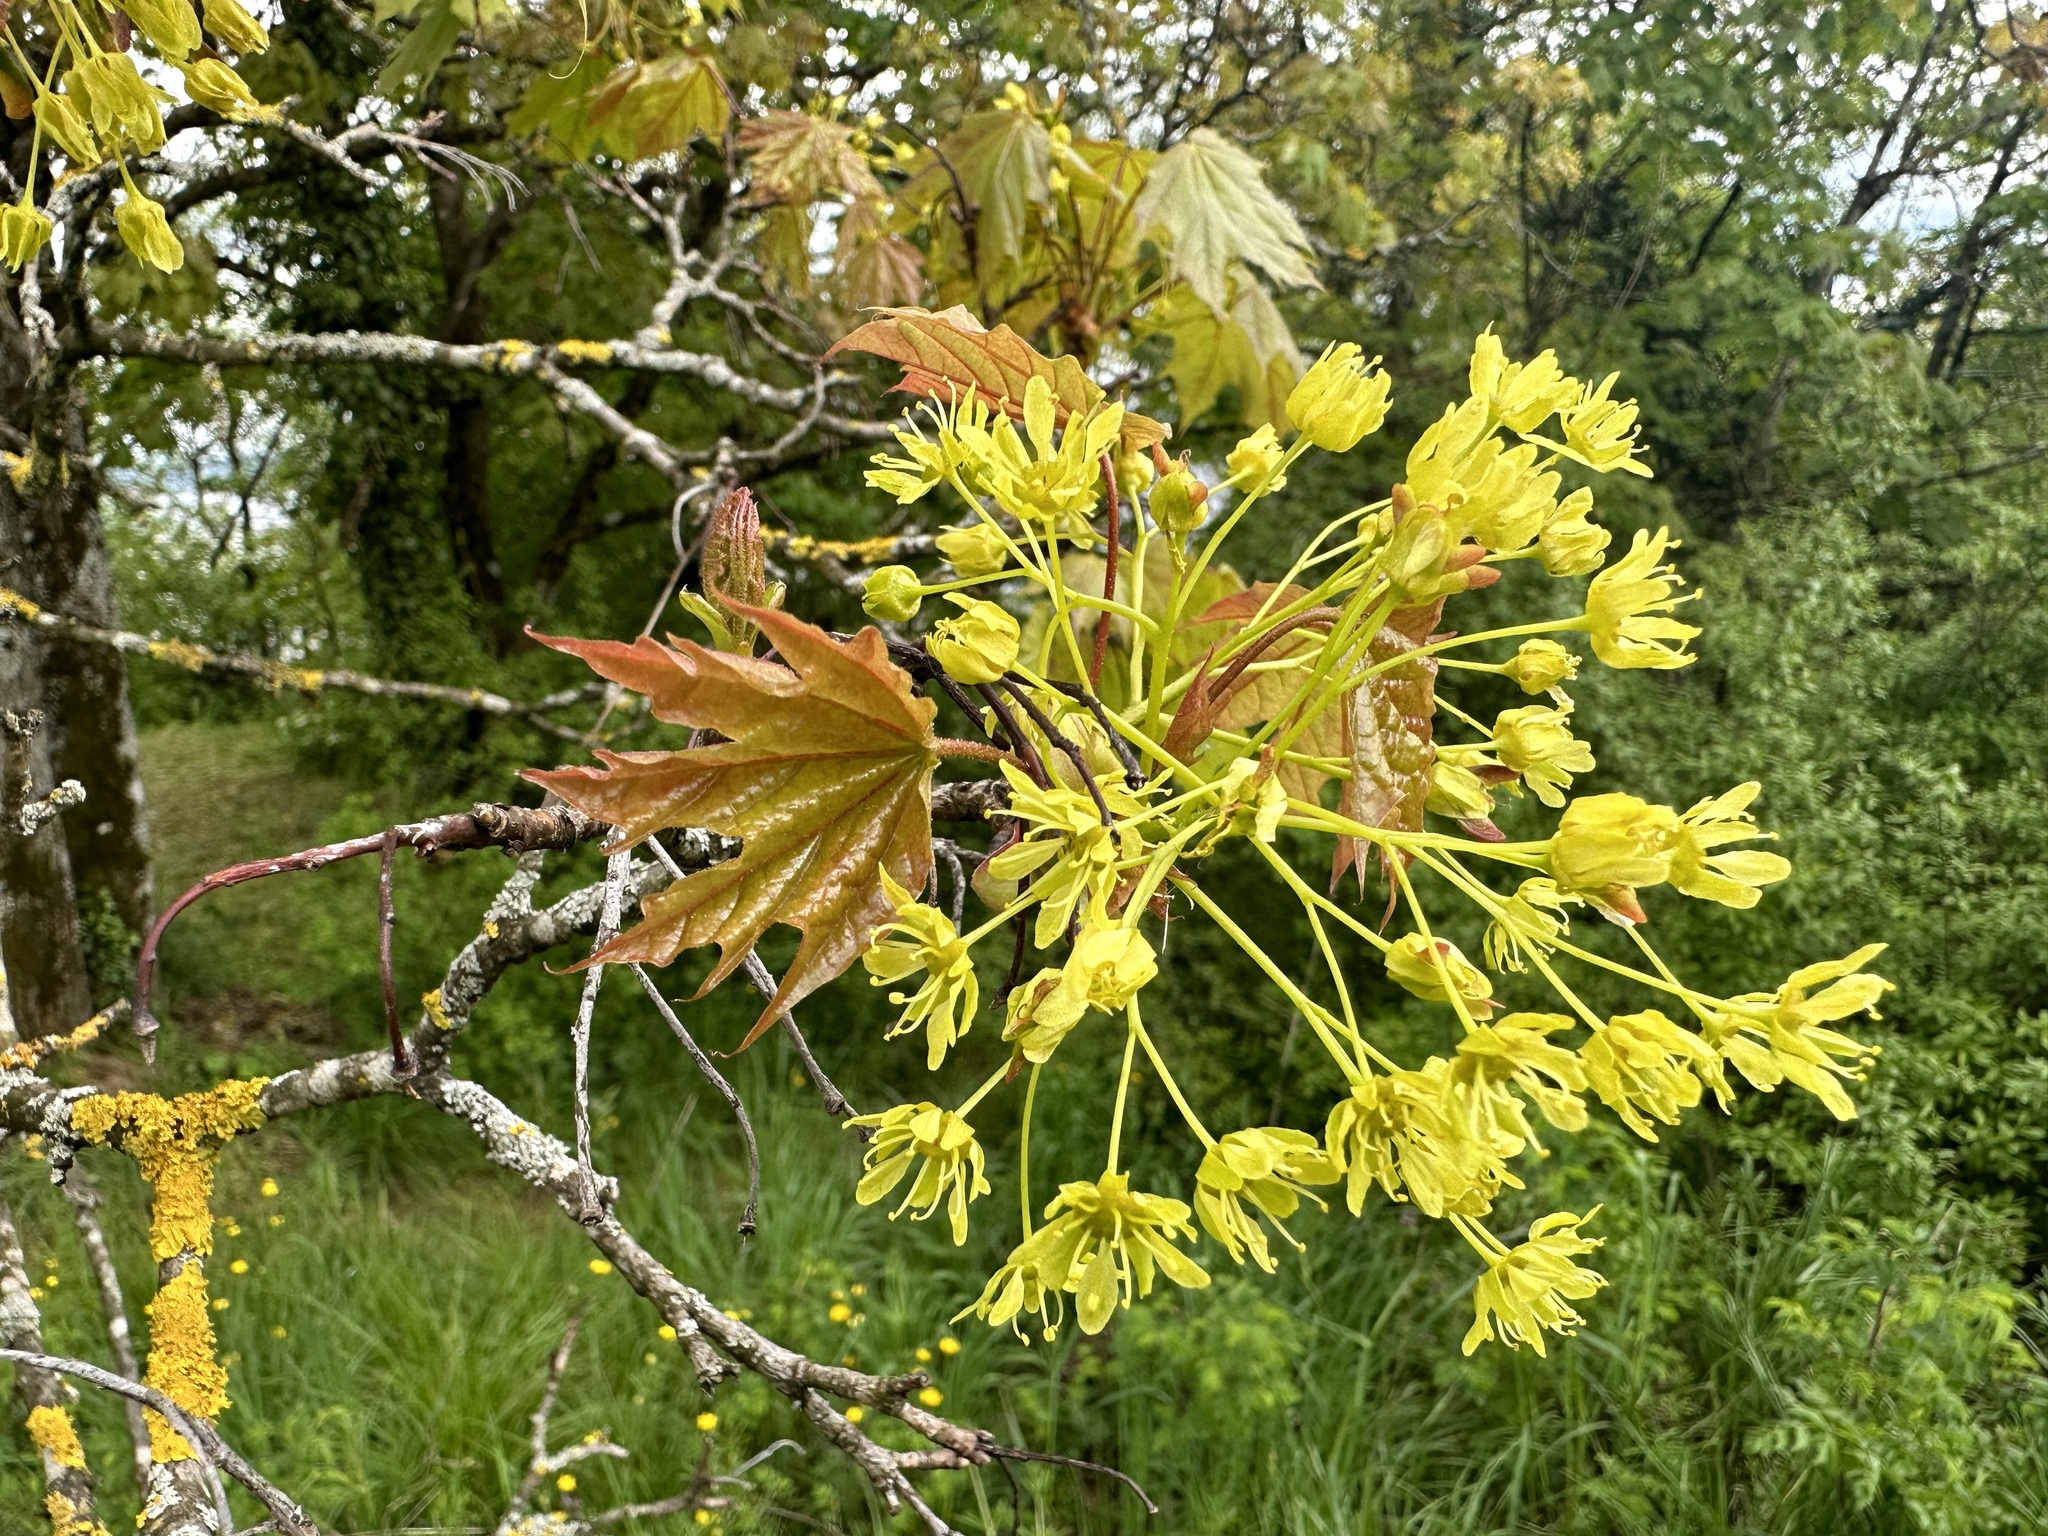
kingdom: Plantae
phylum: Tracheophyta
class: Magnoliopsida
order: Sapindales
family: Sapindaceae
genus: Acer
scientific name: Acer platanoides
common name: Norway maple
